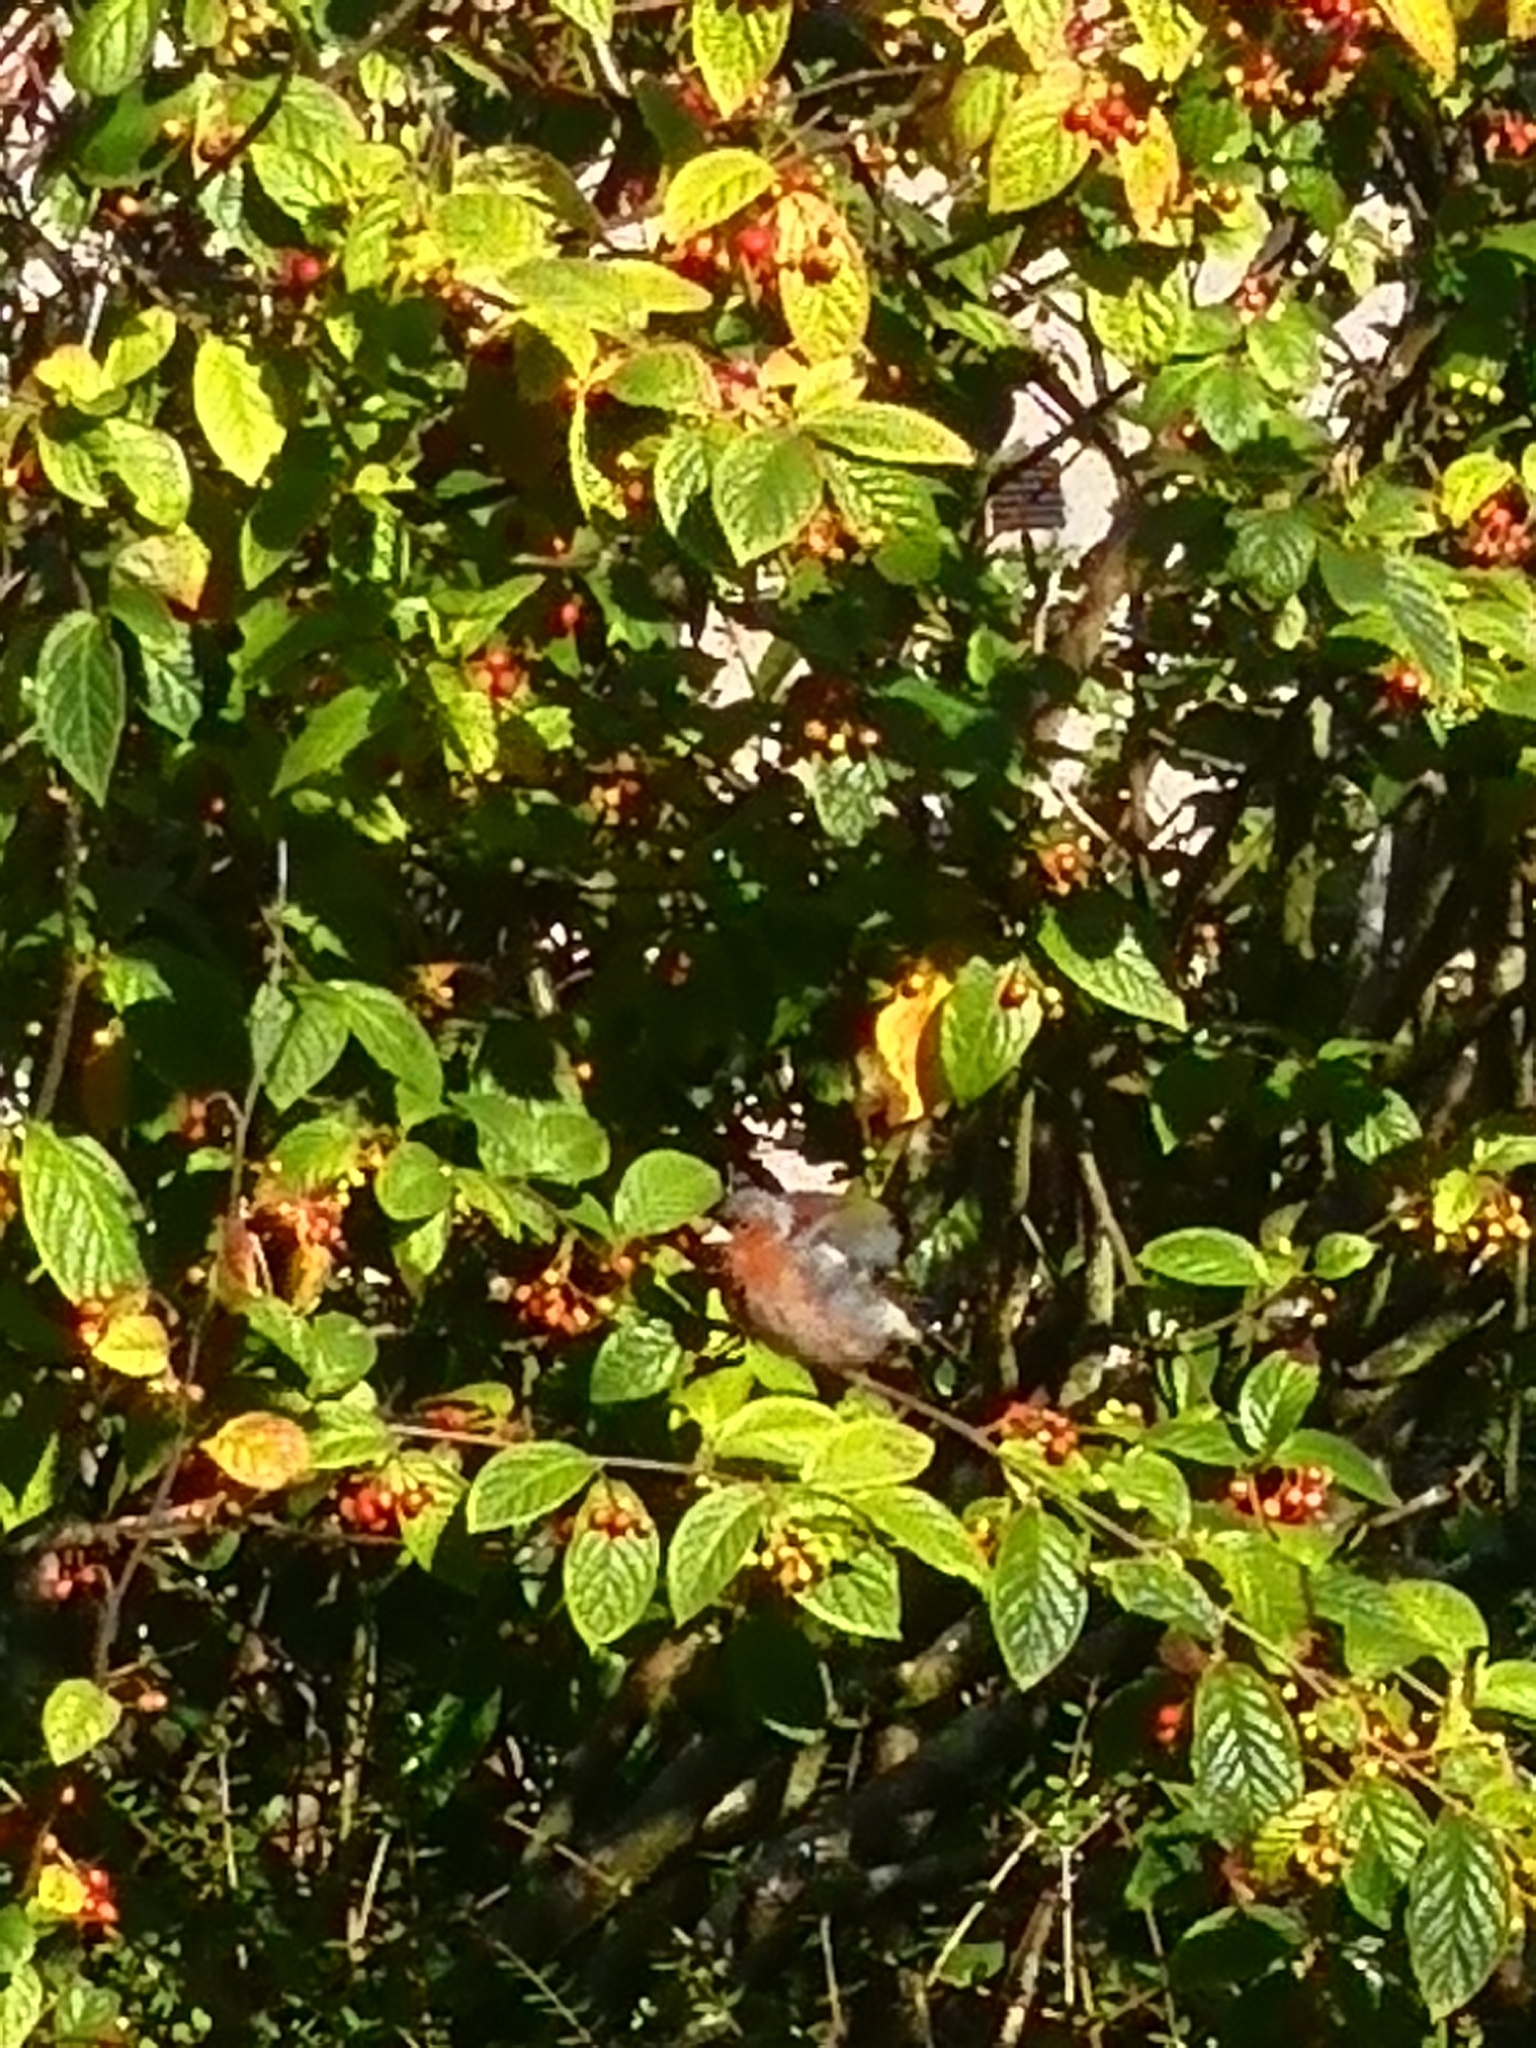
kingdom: Animalia
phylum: Chordata
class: Aves
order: Passeriformes
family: Fringillidae
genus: Fringilla
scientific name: Fringilla coelebs
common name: Common chaffinch
